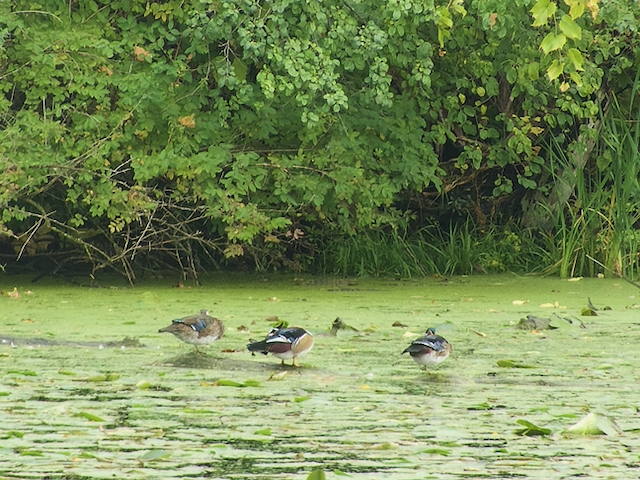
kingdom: Animalia
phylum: Chordata
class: Aves
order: Anseriformes
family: Anatidae
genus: Aix
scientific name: Aix sponsa
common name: Wood duck
